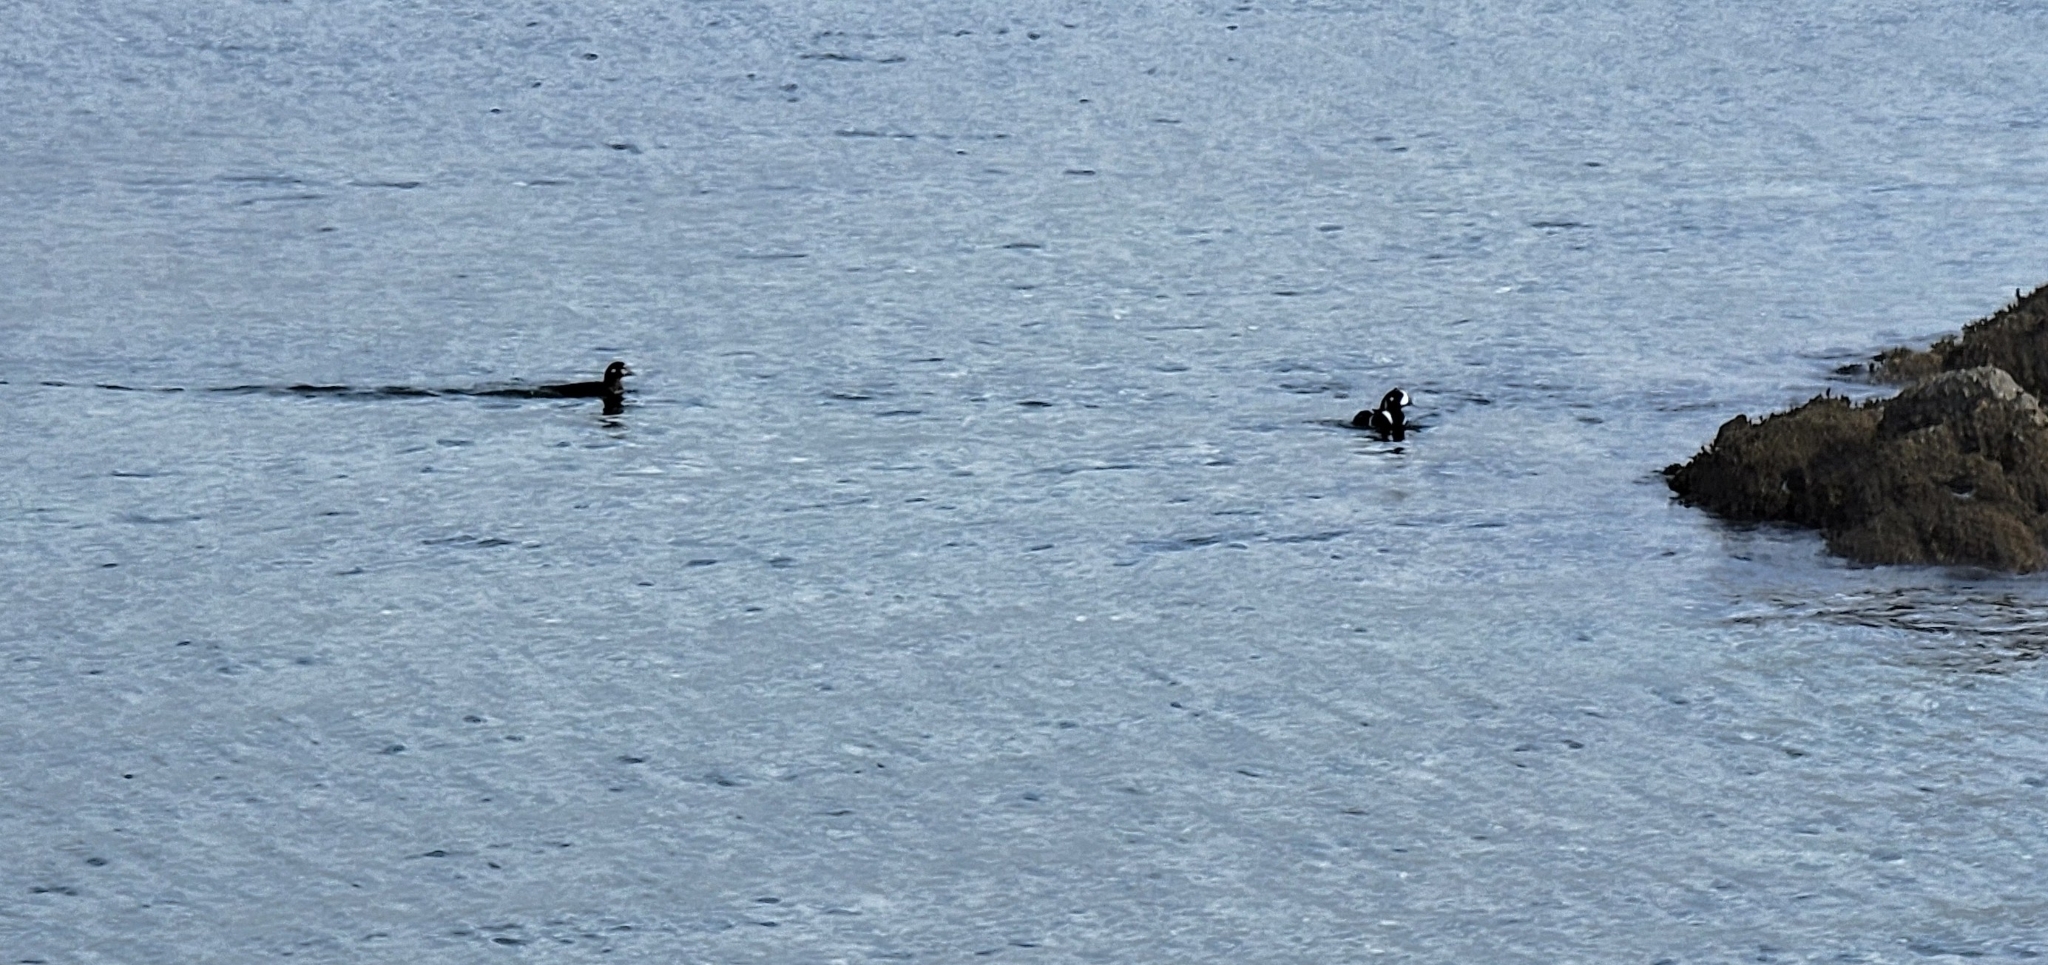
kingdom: Animalia
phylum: Chordata
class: Aves
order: Anseriformes
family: Anatidae
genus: Histrionicus
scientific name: Histrionicus histrionicus
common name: Harlequin duck
